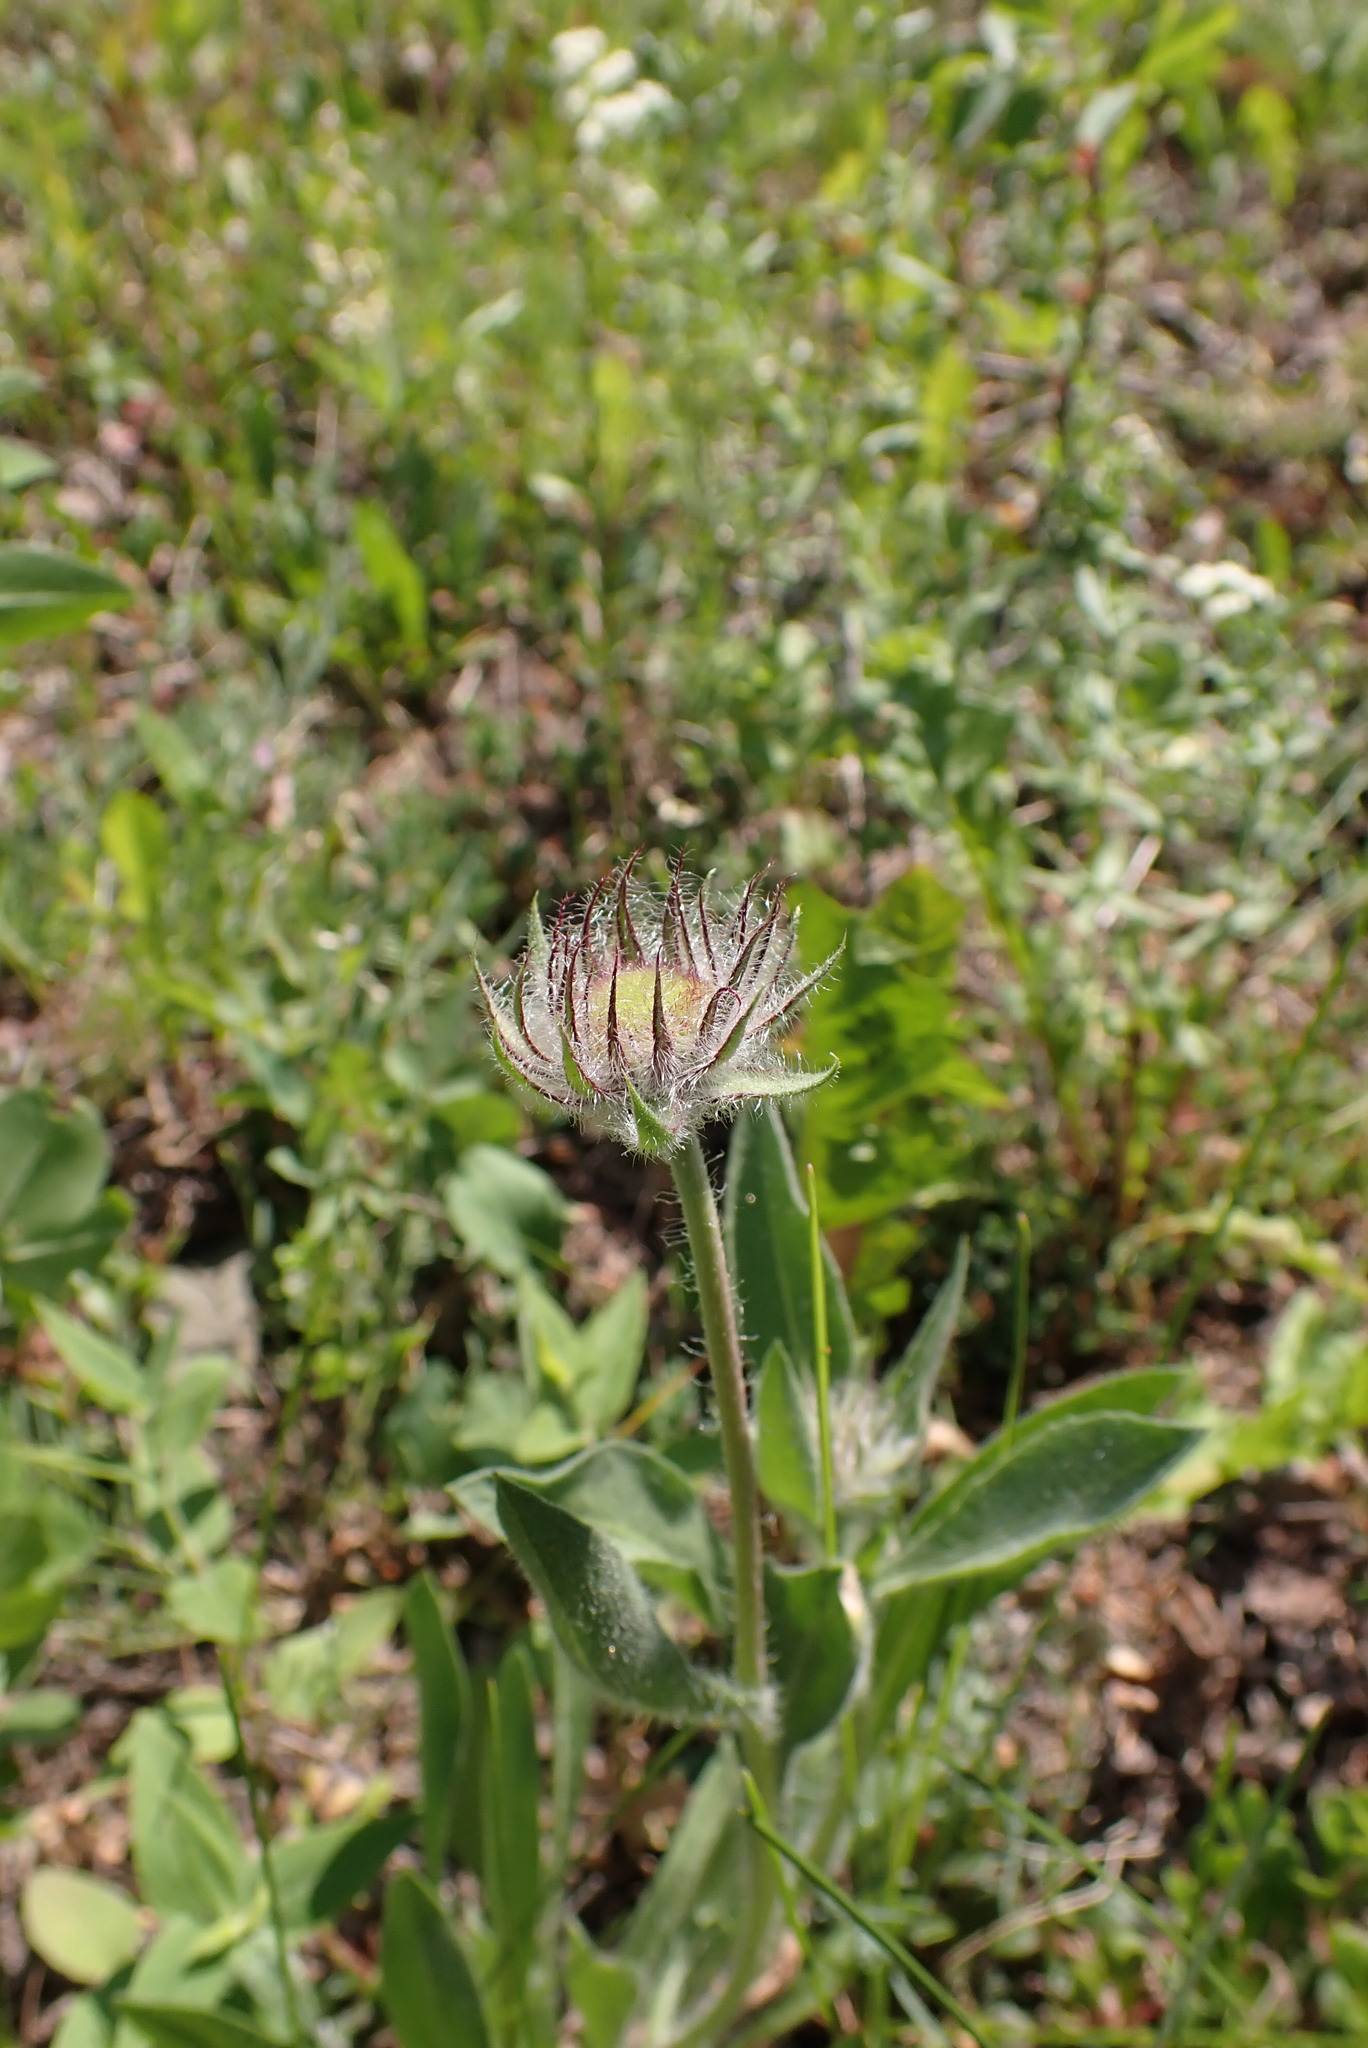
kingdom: Plantae
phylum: Tracheophyta
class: Magnoliopsida
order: Asterales
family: Asteraceae
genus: Gaillardia
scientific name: Gaillardia aristata
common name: Blanket-flower
